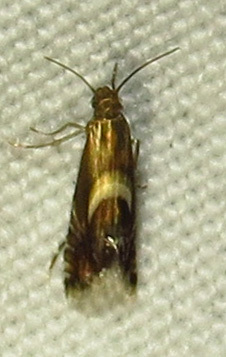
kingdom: Animalia
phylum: Arthropoda
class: Insecta
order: Lepidoptera
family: Glyphipterigidae
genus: Glyphipterix
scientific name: Glyphipterix Diploschizia impigritella
